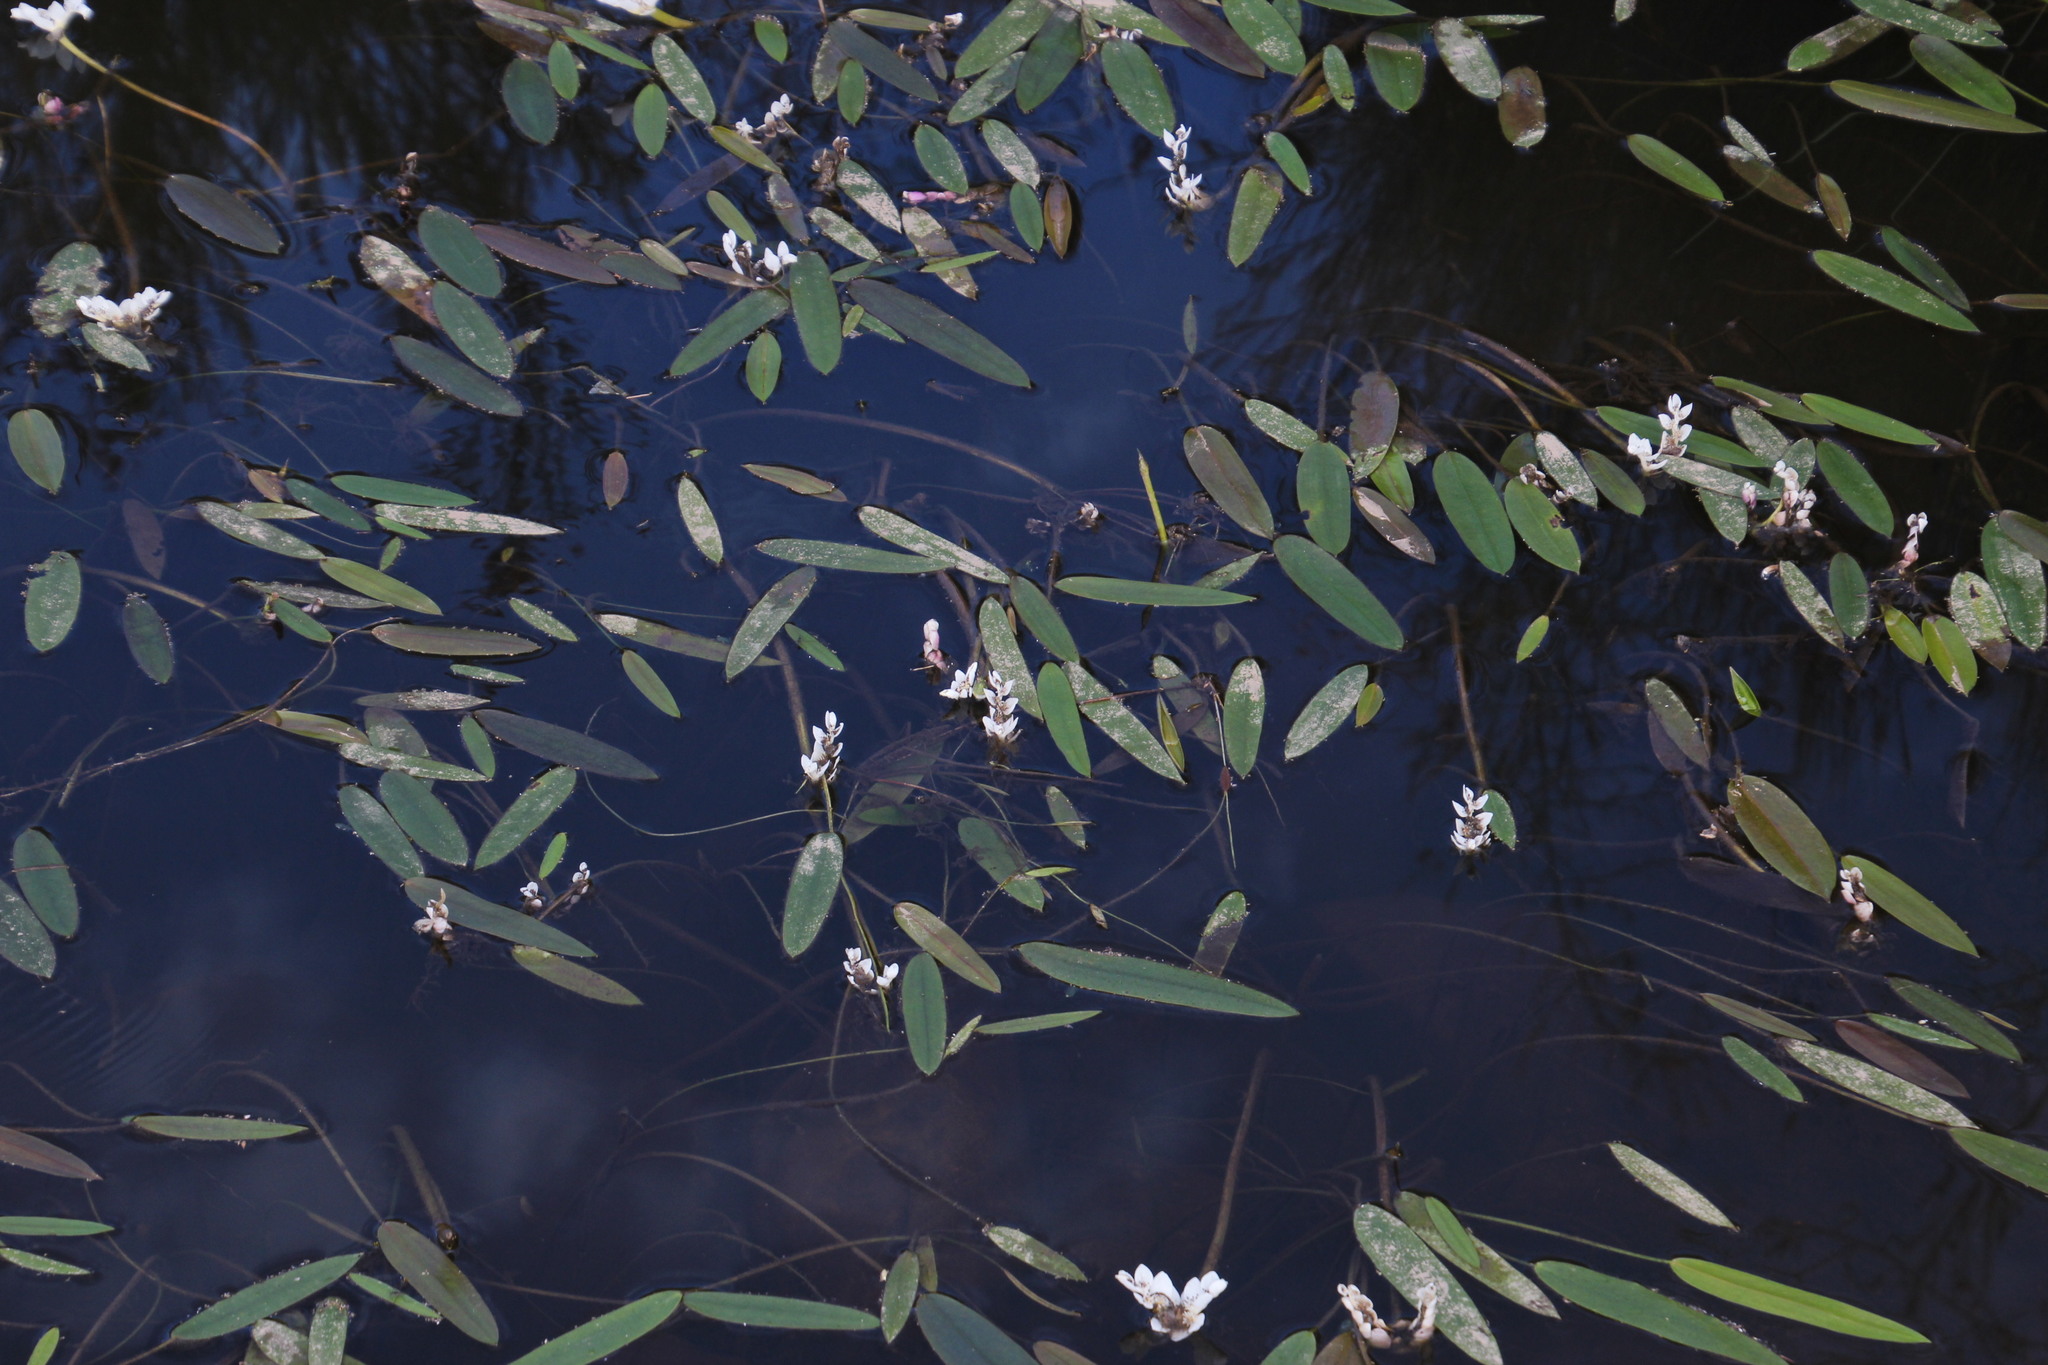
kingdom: Plantae
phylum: Tracheophyta
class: Liliopsida
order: Alismatales
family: Aponogetonaceae
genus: Aponogeton
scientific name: Aponogeton distachyos
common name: Cape-pondweed
